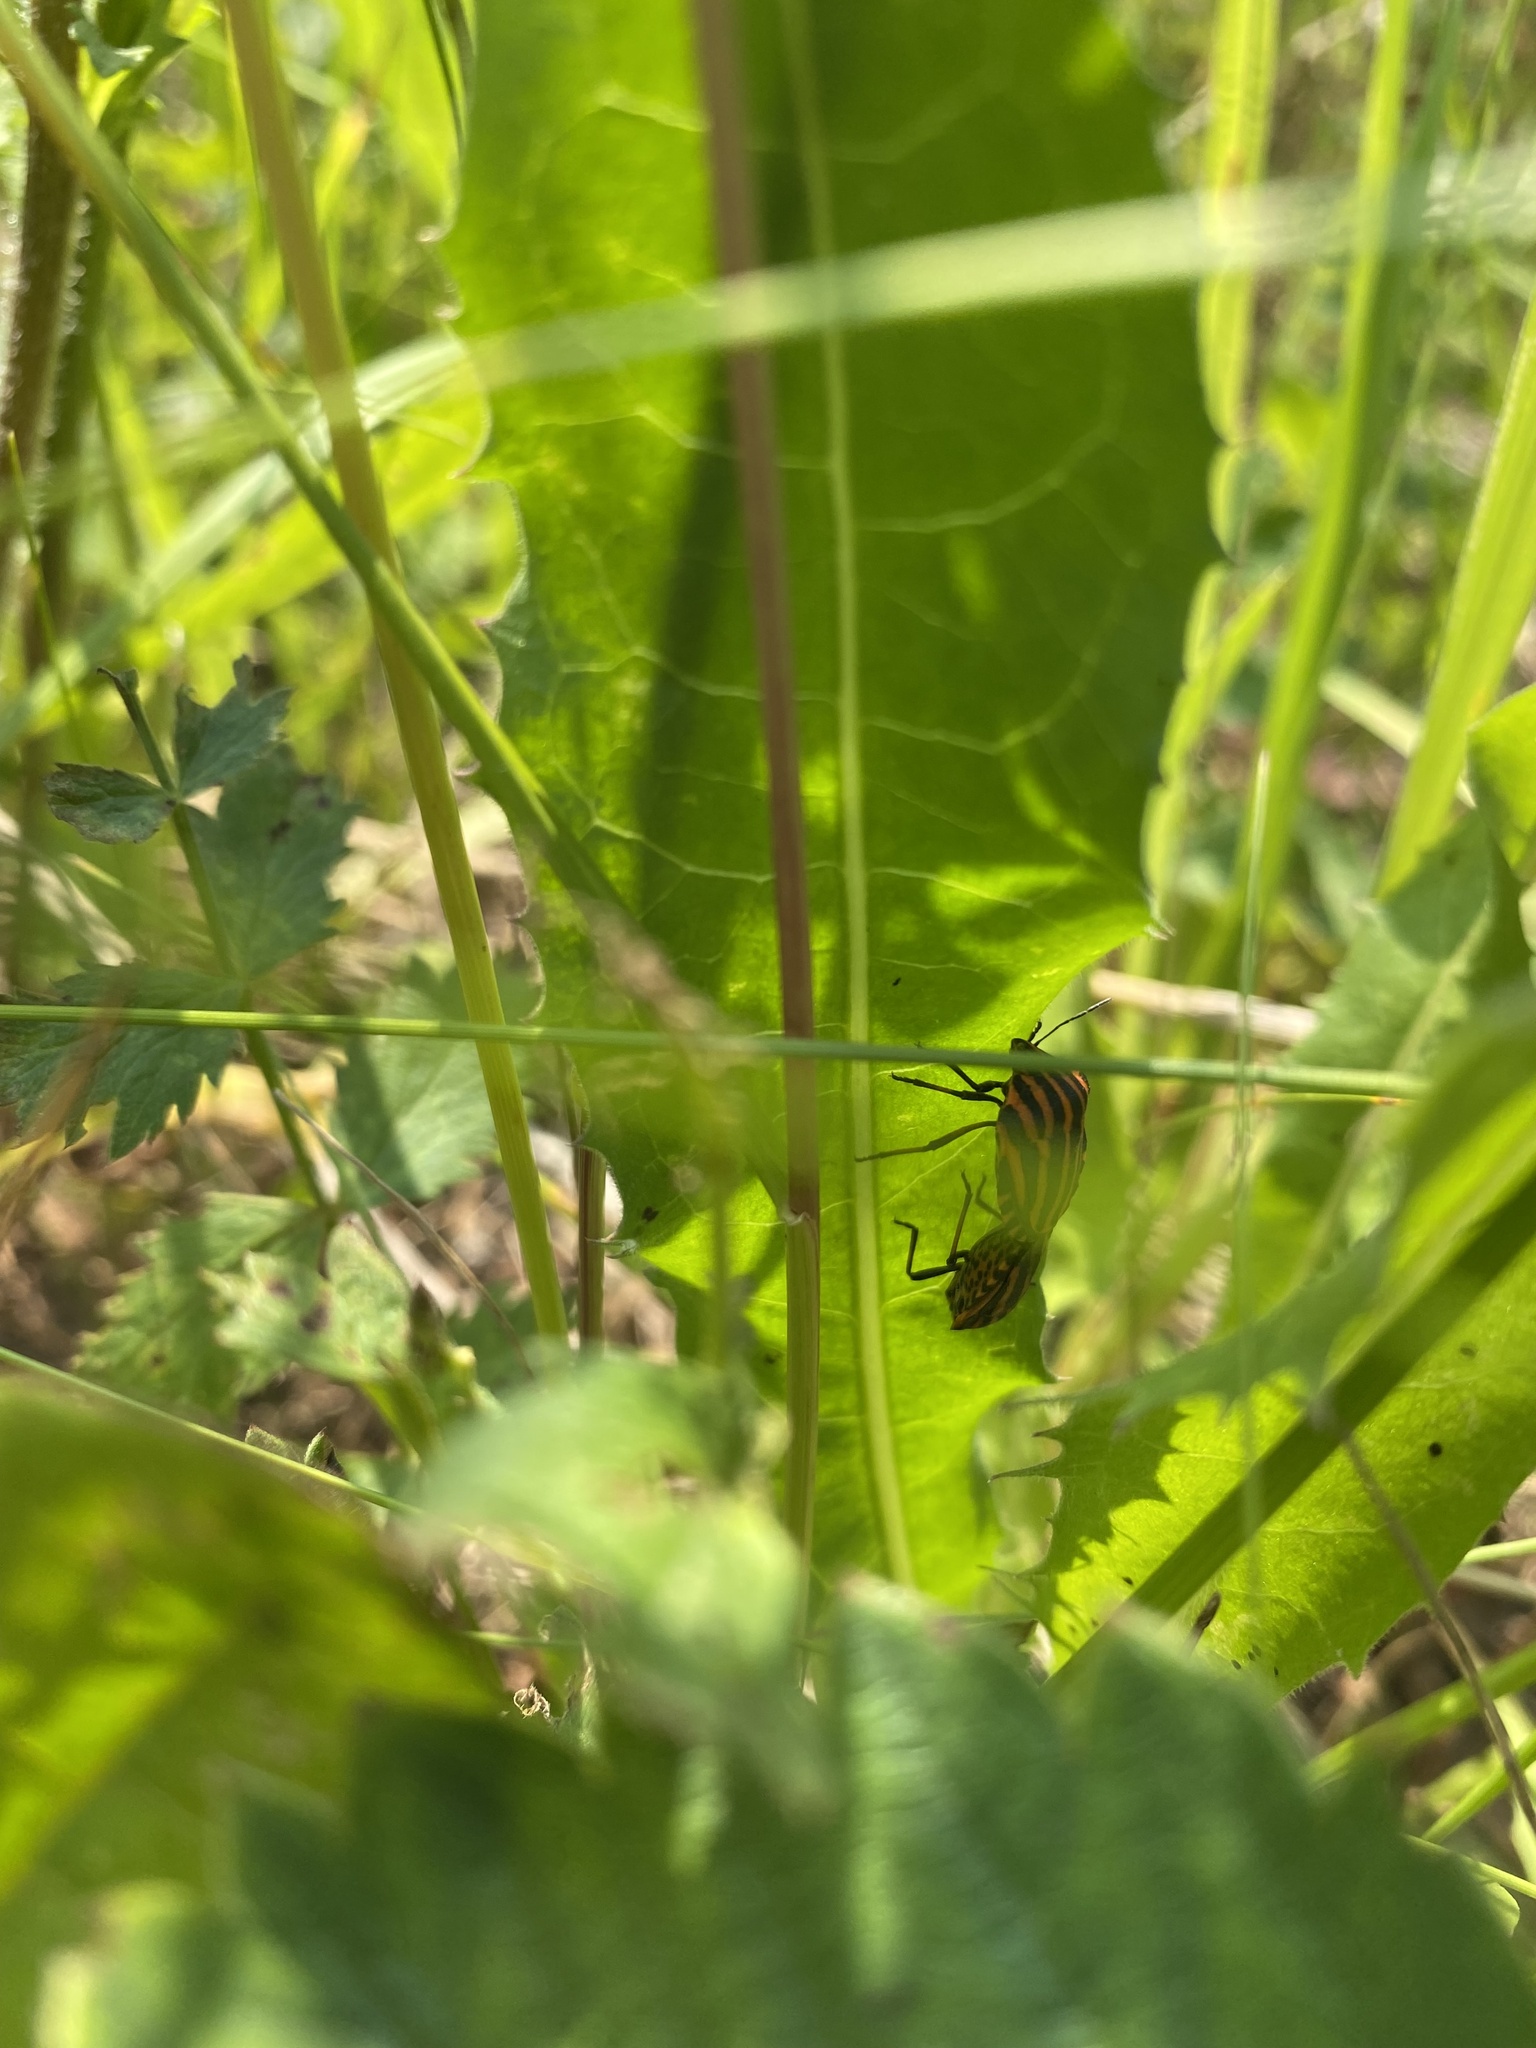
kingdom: Animalia
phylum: Arthropoda
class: Insecta
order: Hemiptera
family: Pentatomidae
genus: Graphosoma
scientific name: Graphosoma italicum
